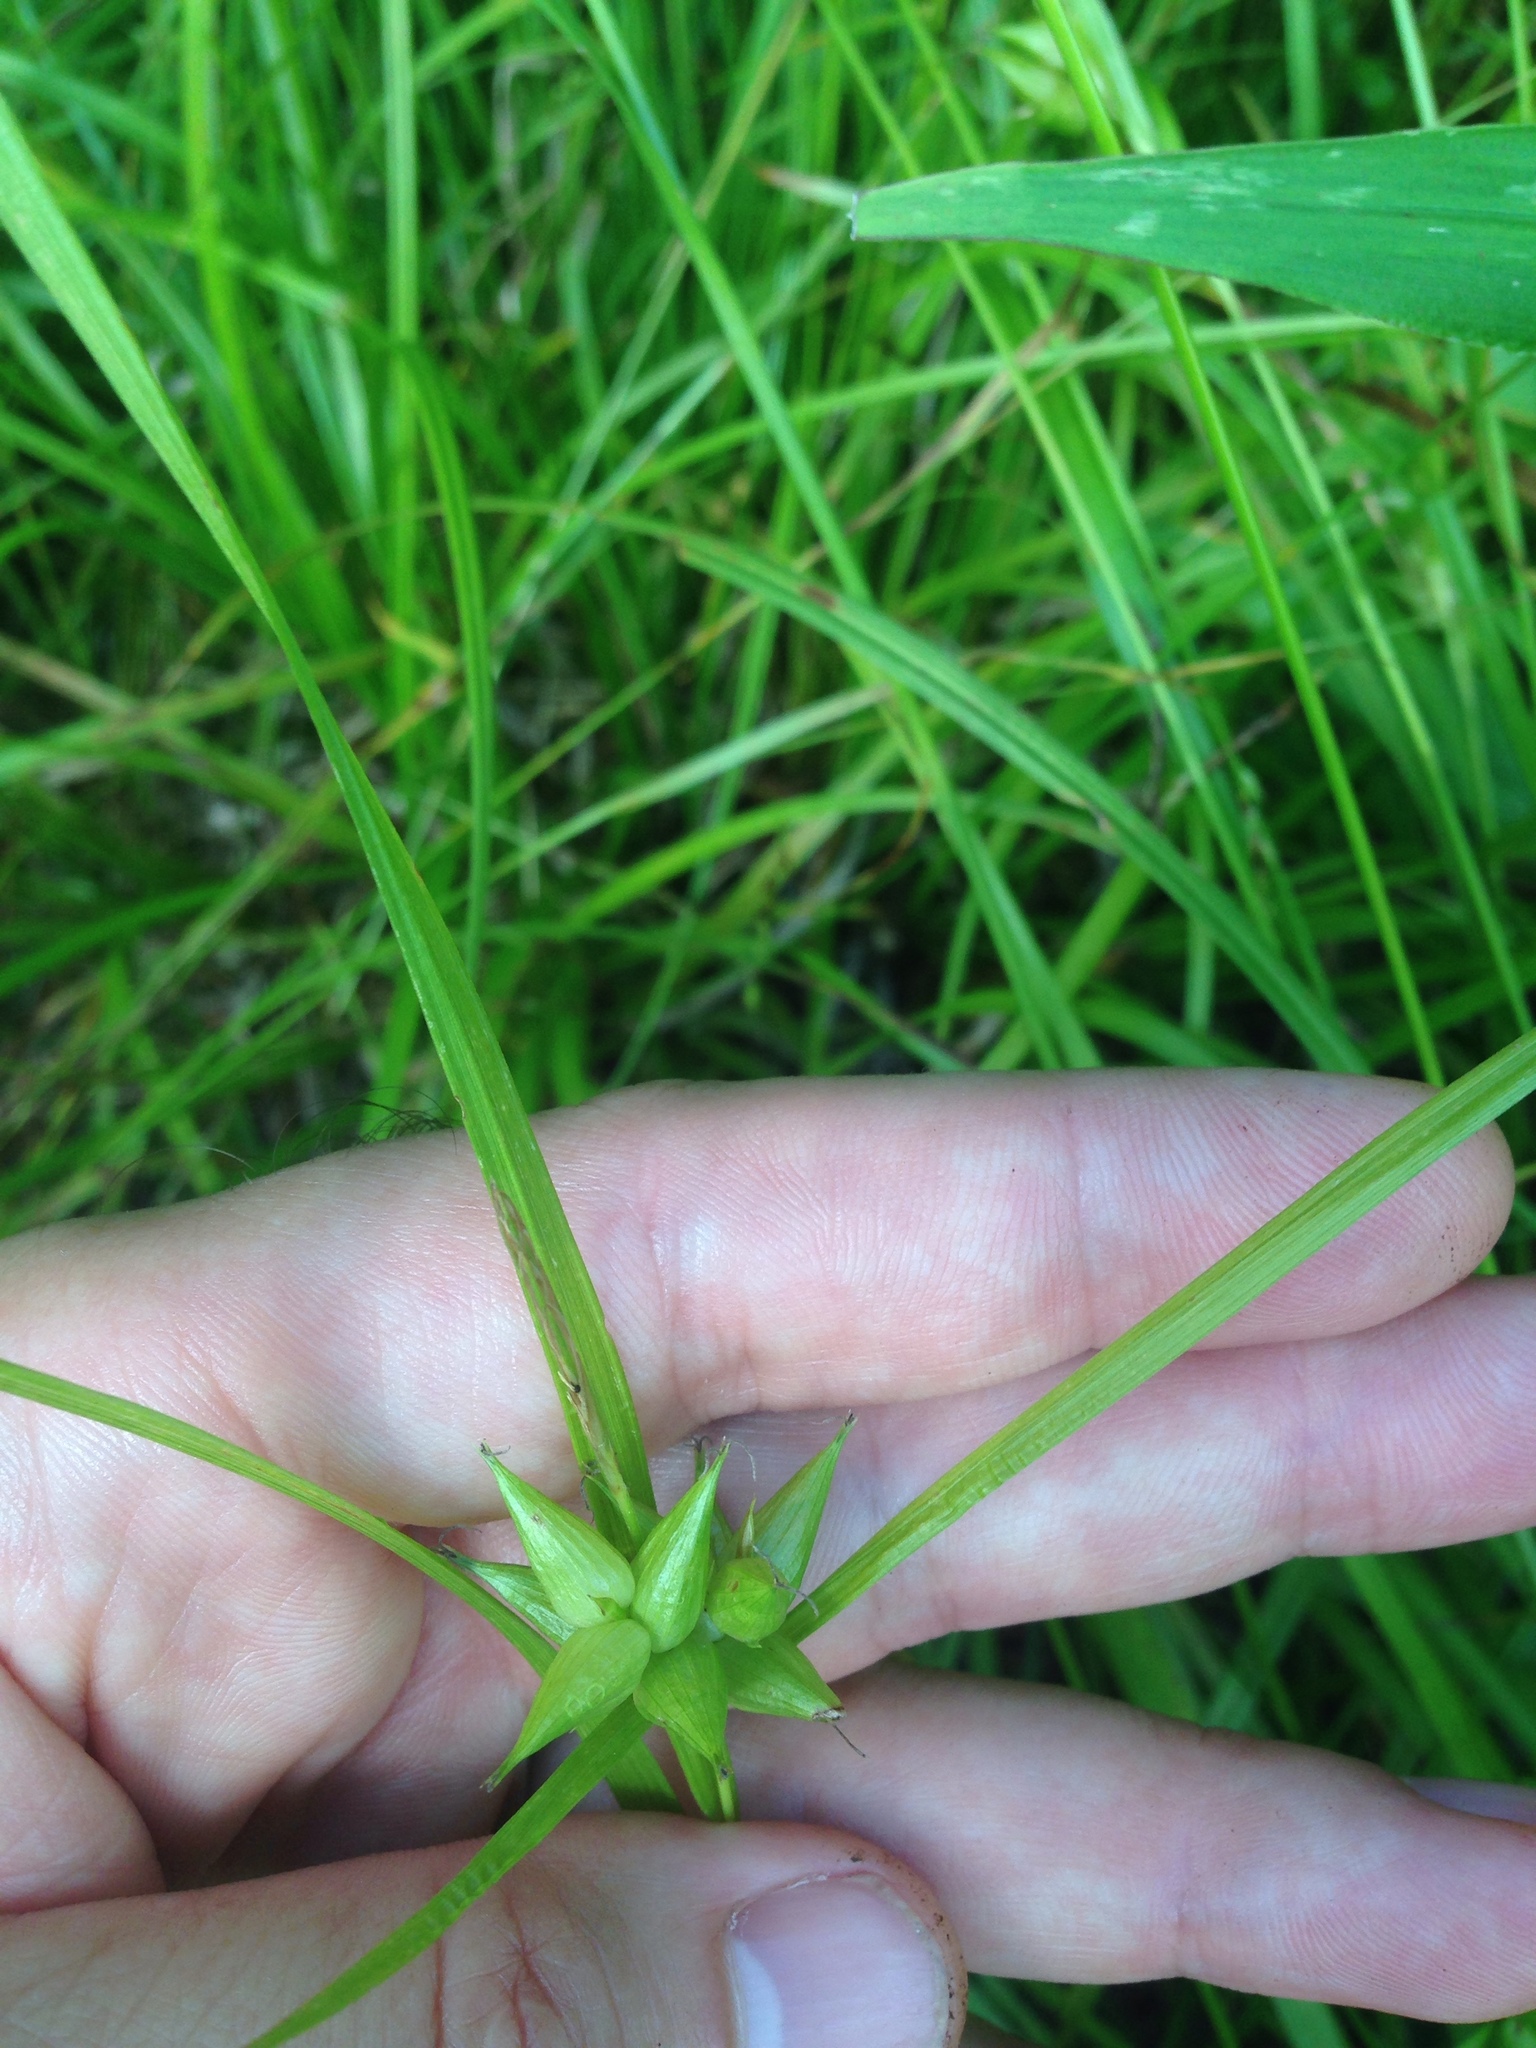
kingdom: Plantae
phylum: Tracheophyta
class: Liliopsida
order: Poales
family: Cyperaceae
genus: Carex
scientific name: Carex intumescens
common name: Greater bladder sedge
